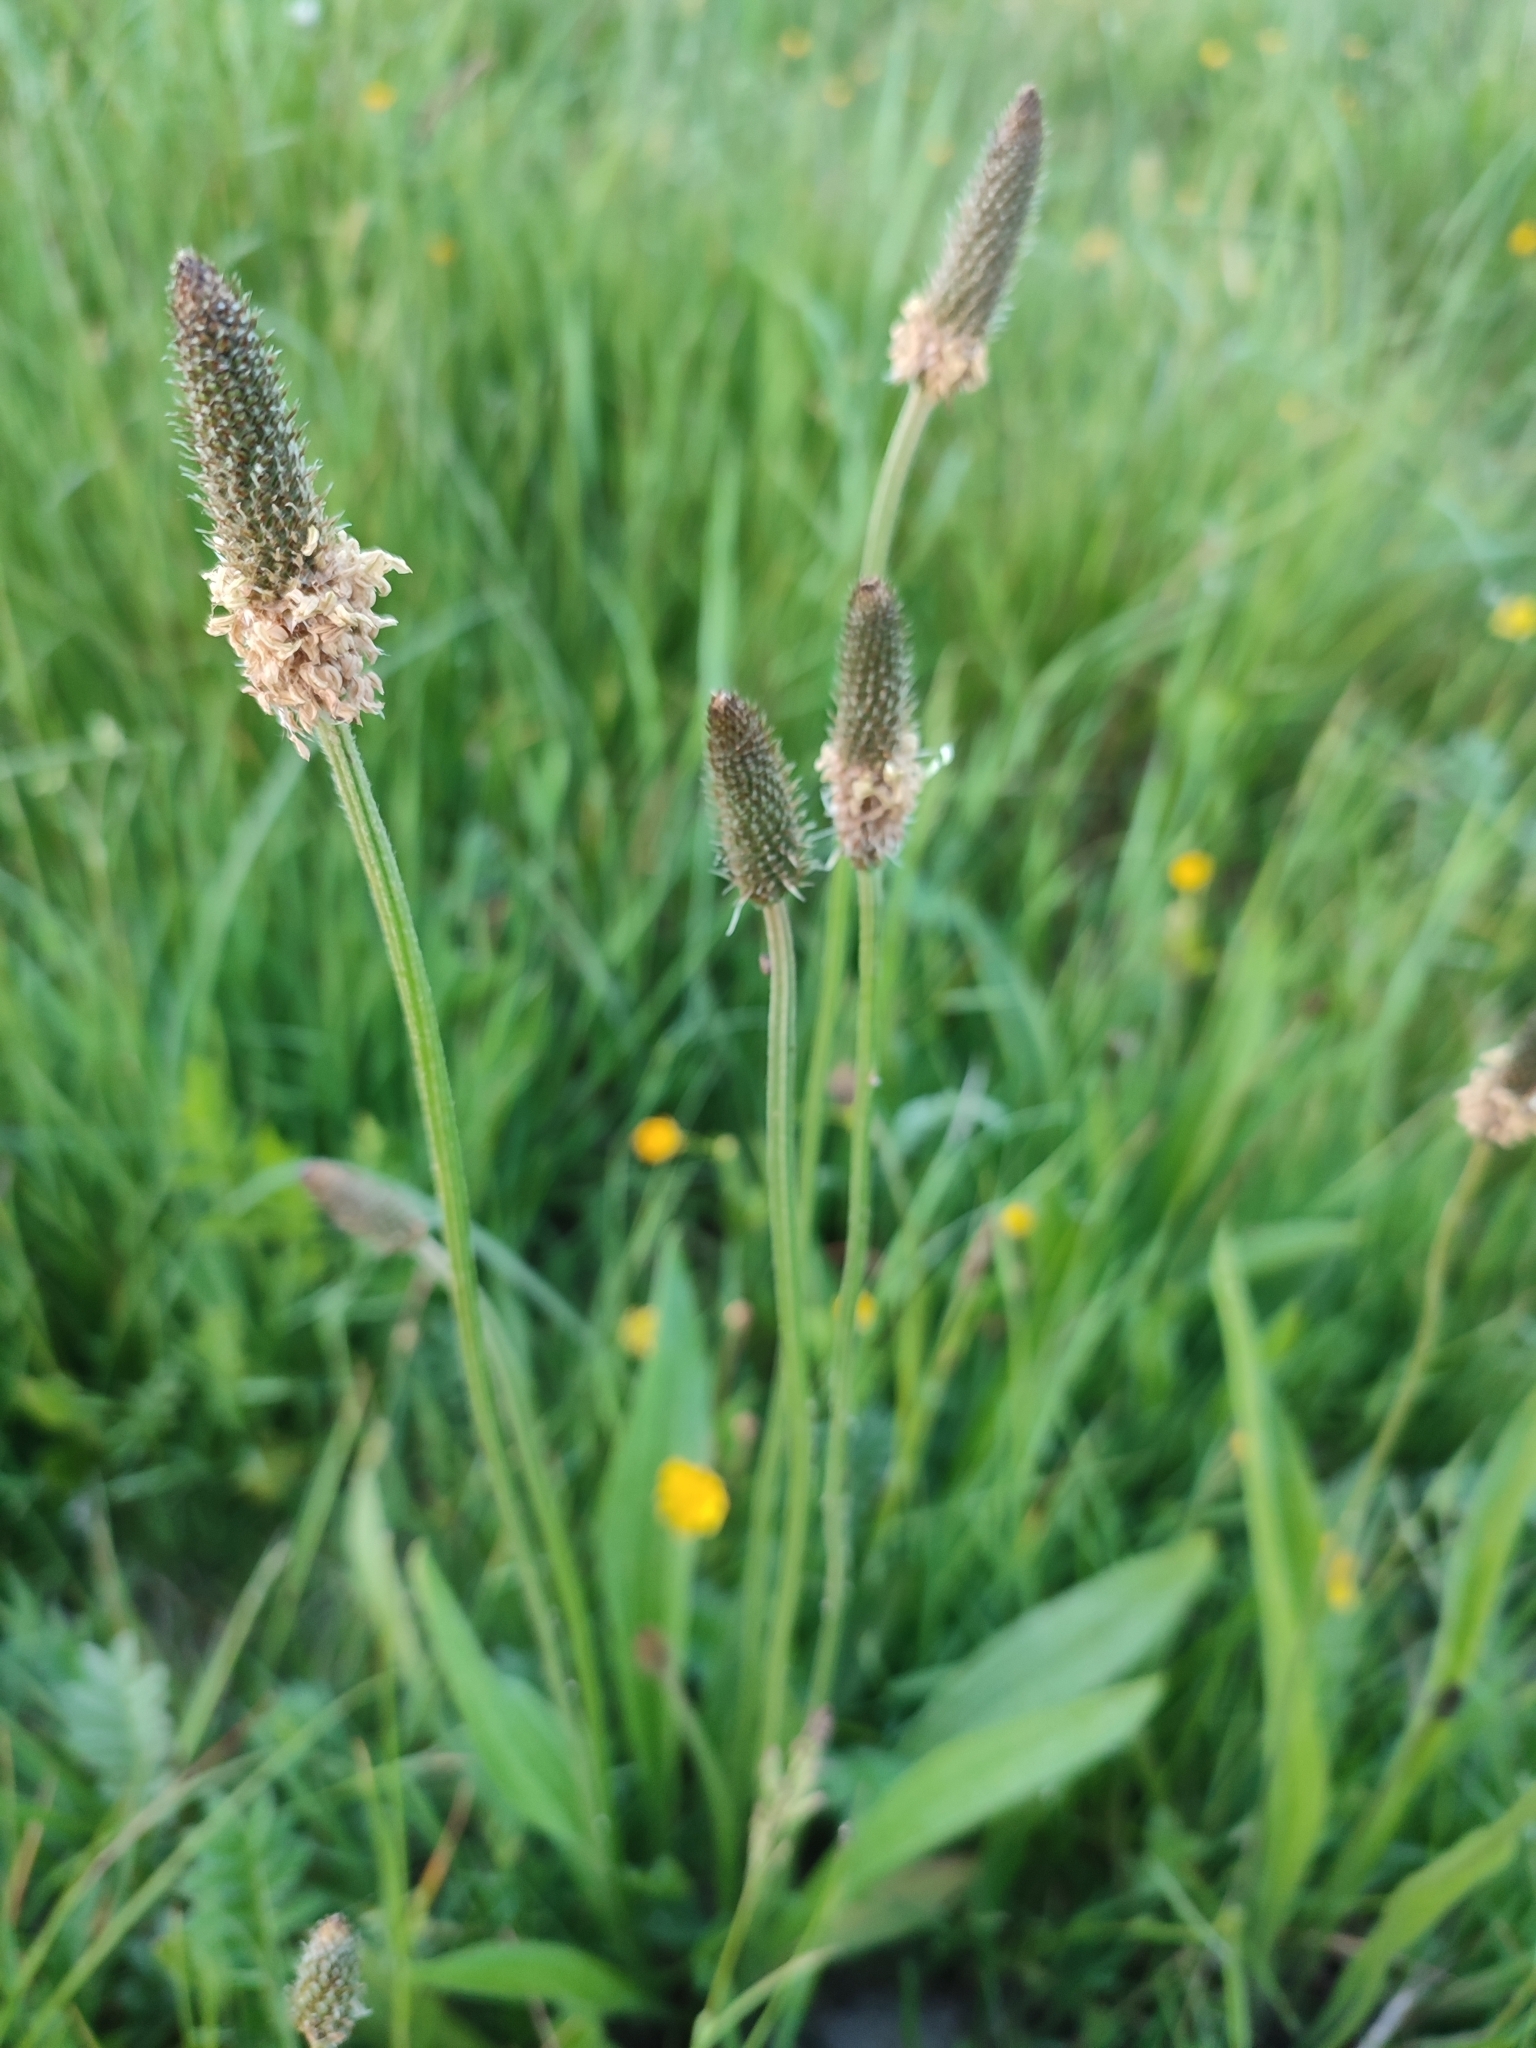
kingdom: Plantae
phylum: Tracheophyta
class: Magnoliopsida
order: Lamiales
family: Plantaginaceae
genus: Plantago
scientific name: Plantago lanceolata
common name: Ribwort plantain
